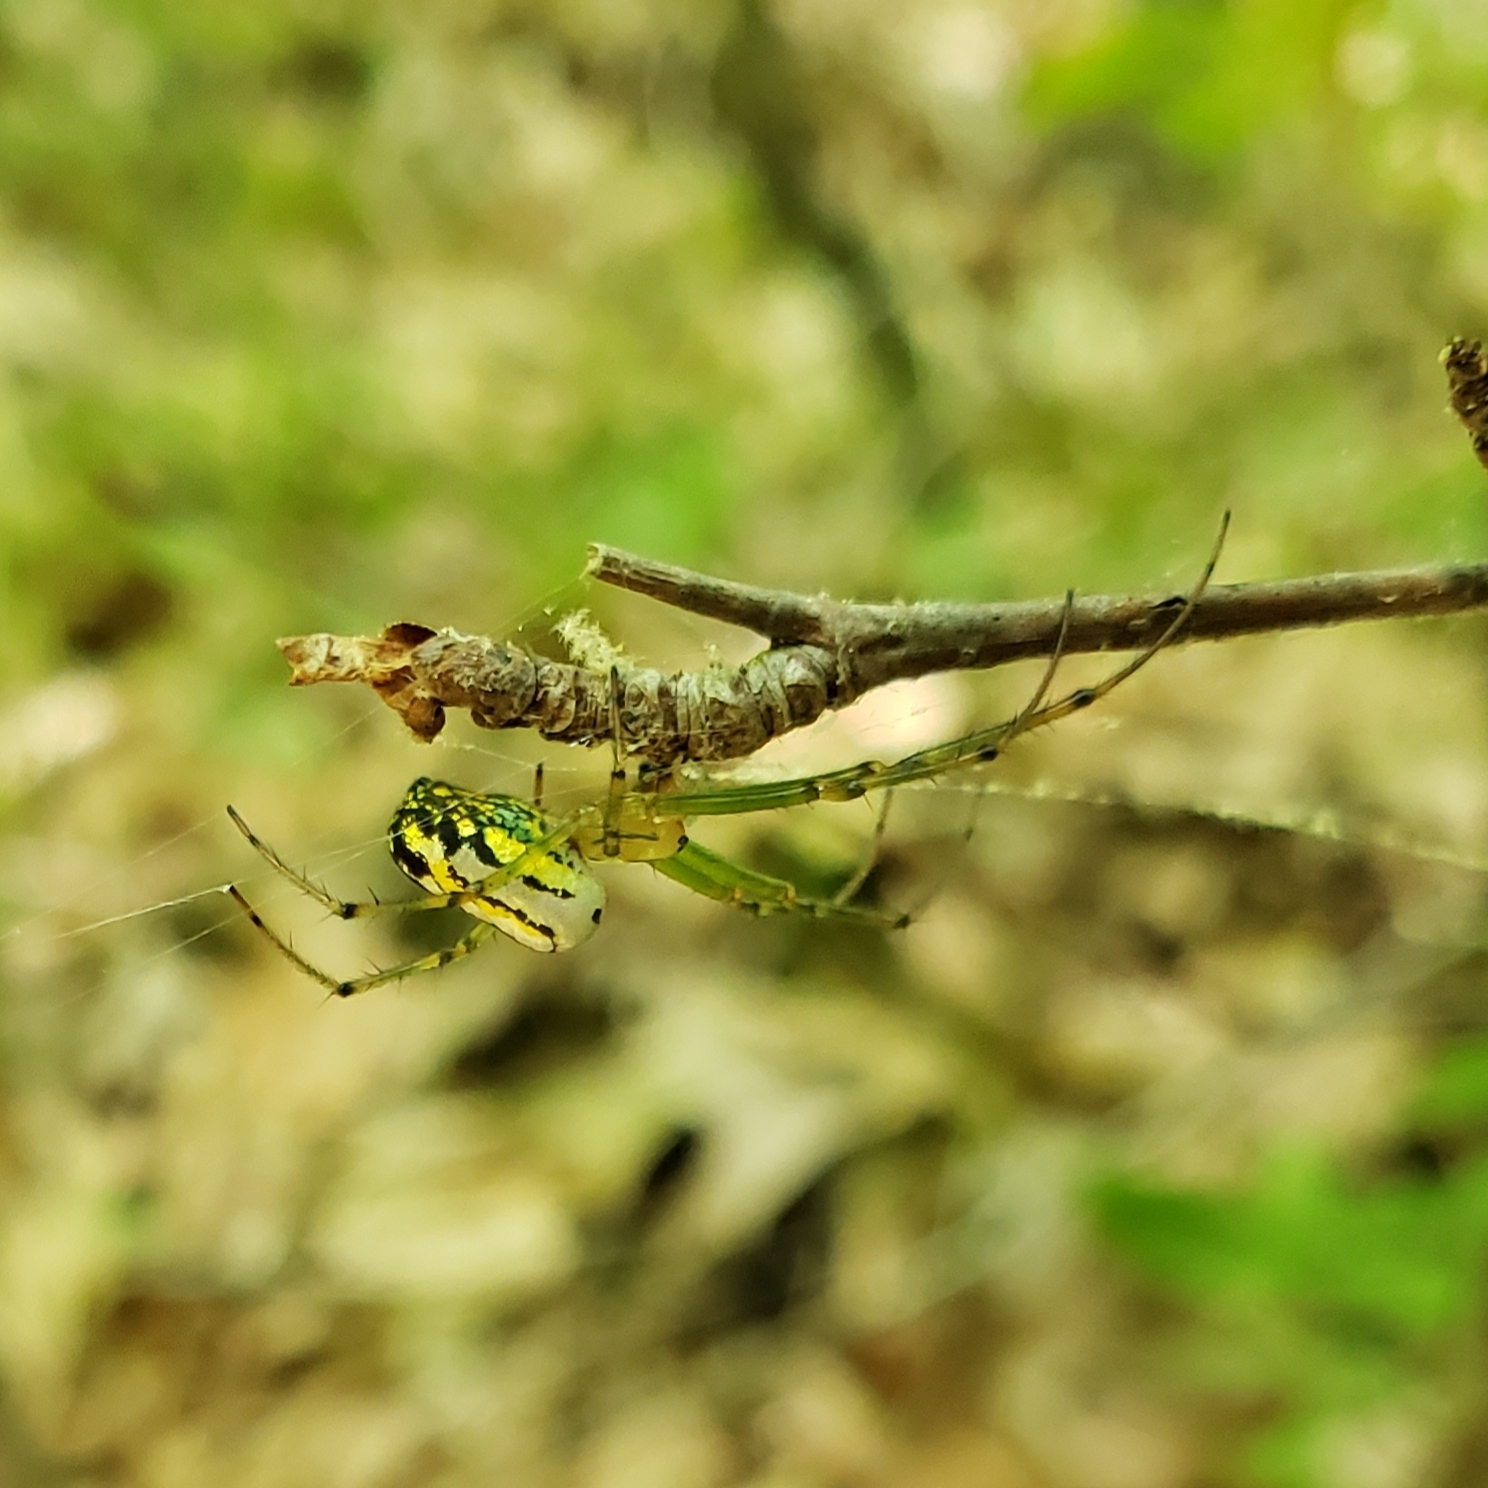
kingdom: Animalia
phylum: Arthropoda
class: Arachnida
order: Araneae
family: Tetragnathidae
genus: Leucauge
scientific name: Leucauge venusta
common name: Longjawed orb weavers
